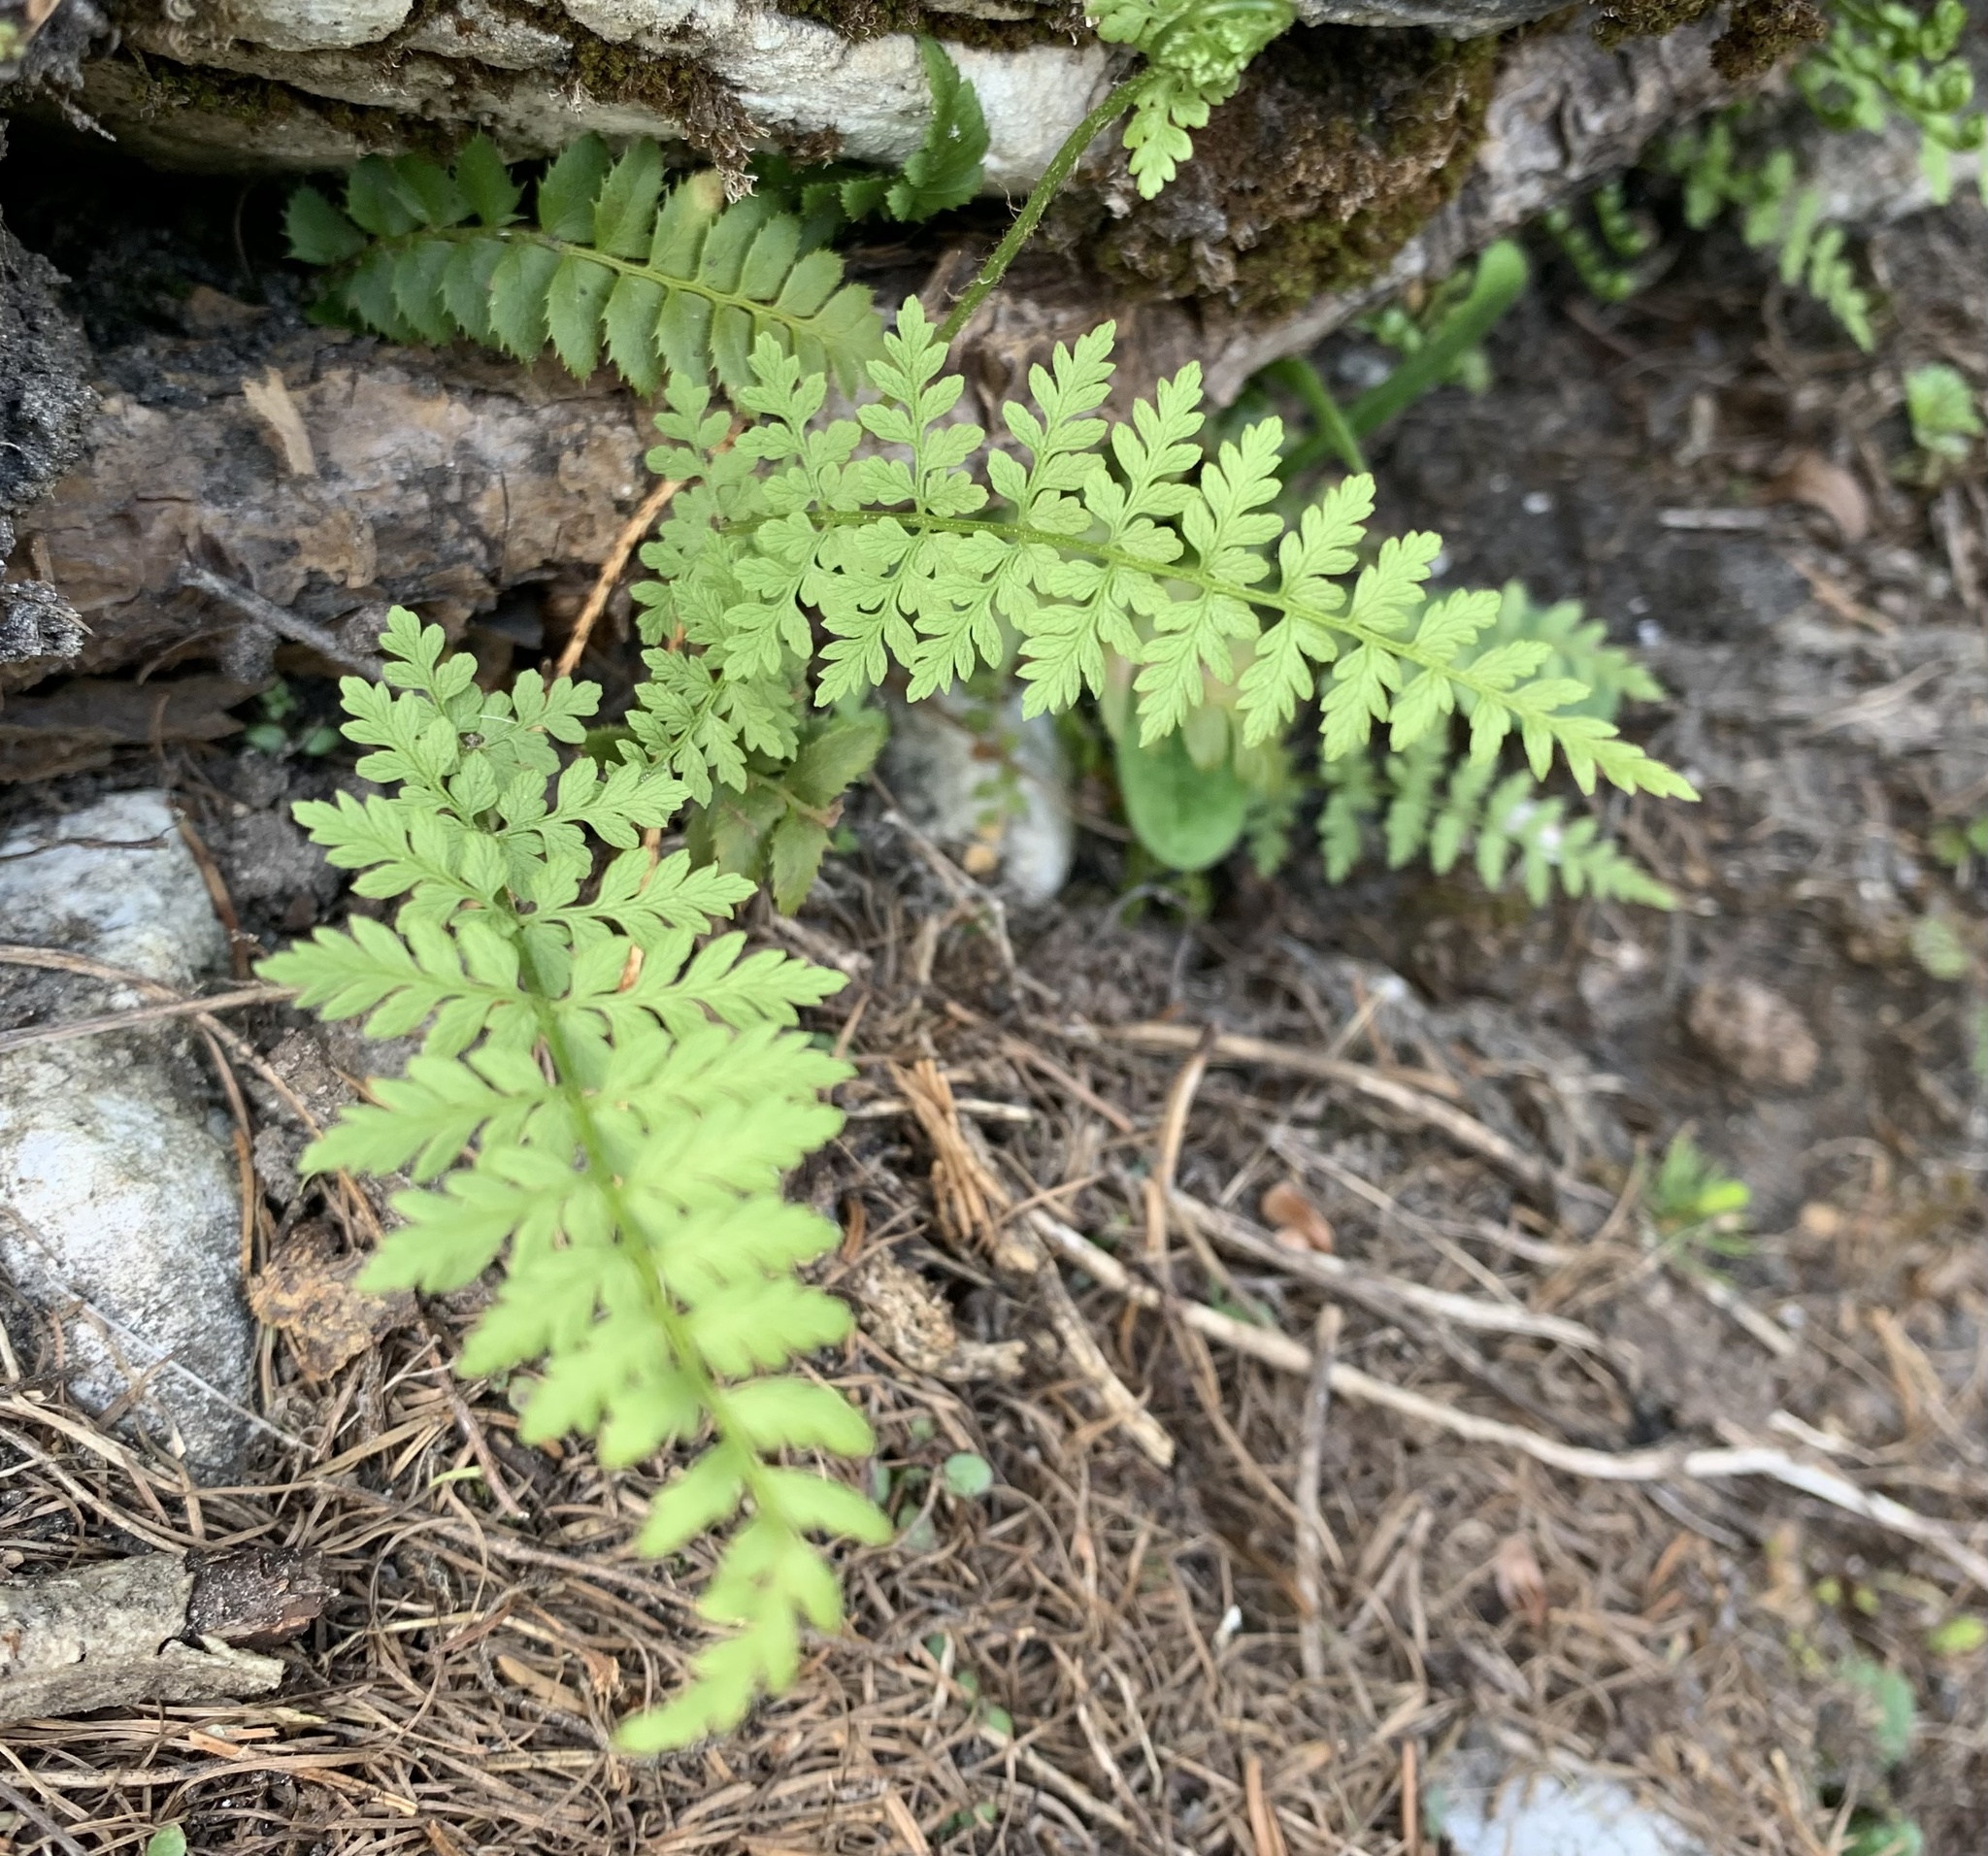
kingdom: Plantae
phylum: Tracheophyta
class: Polypodiopsida
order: Polypodiales
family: Cystopteridaceae
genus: Cystopteris
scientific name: Cystopteris fragilis
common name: Brittle bladder fern
